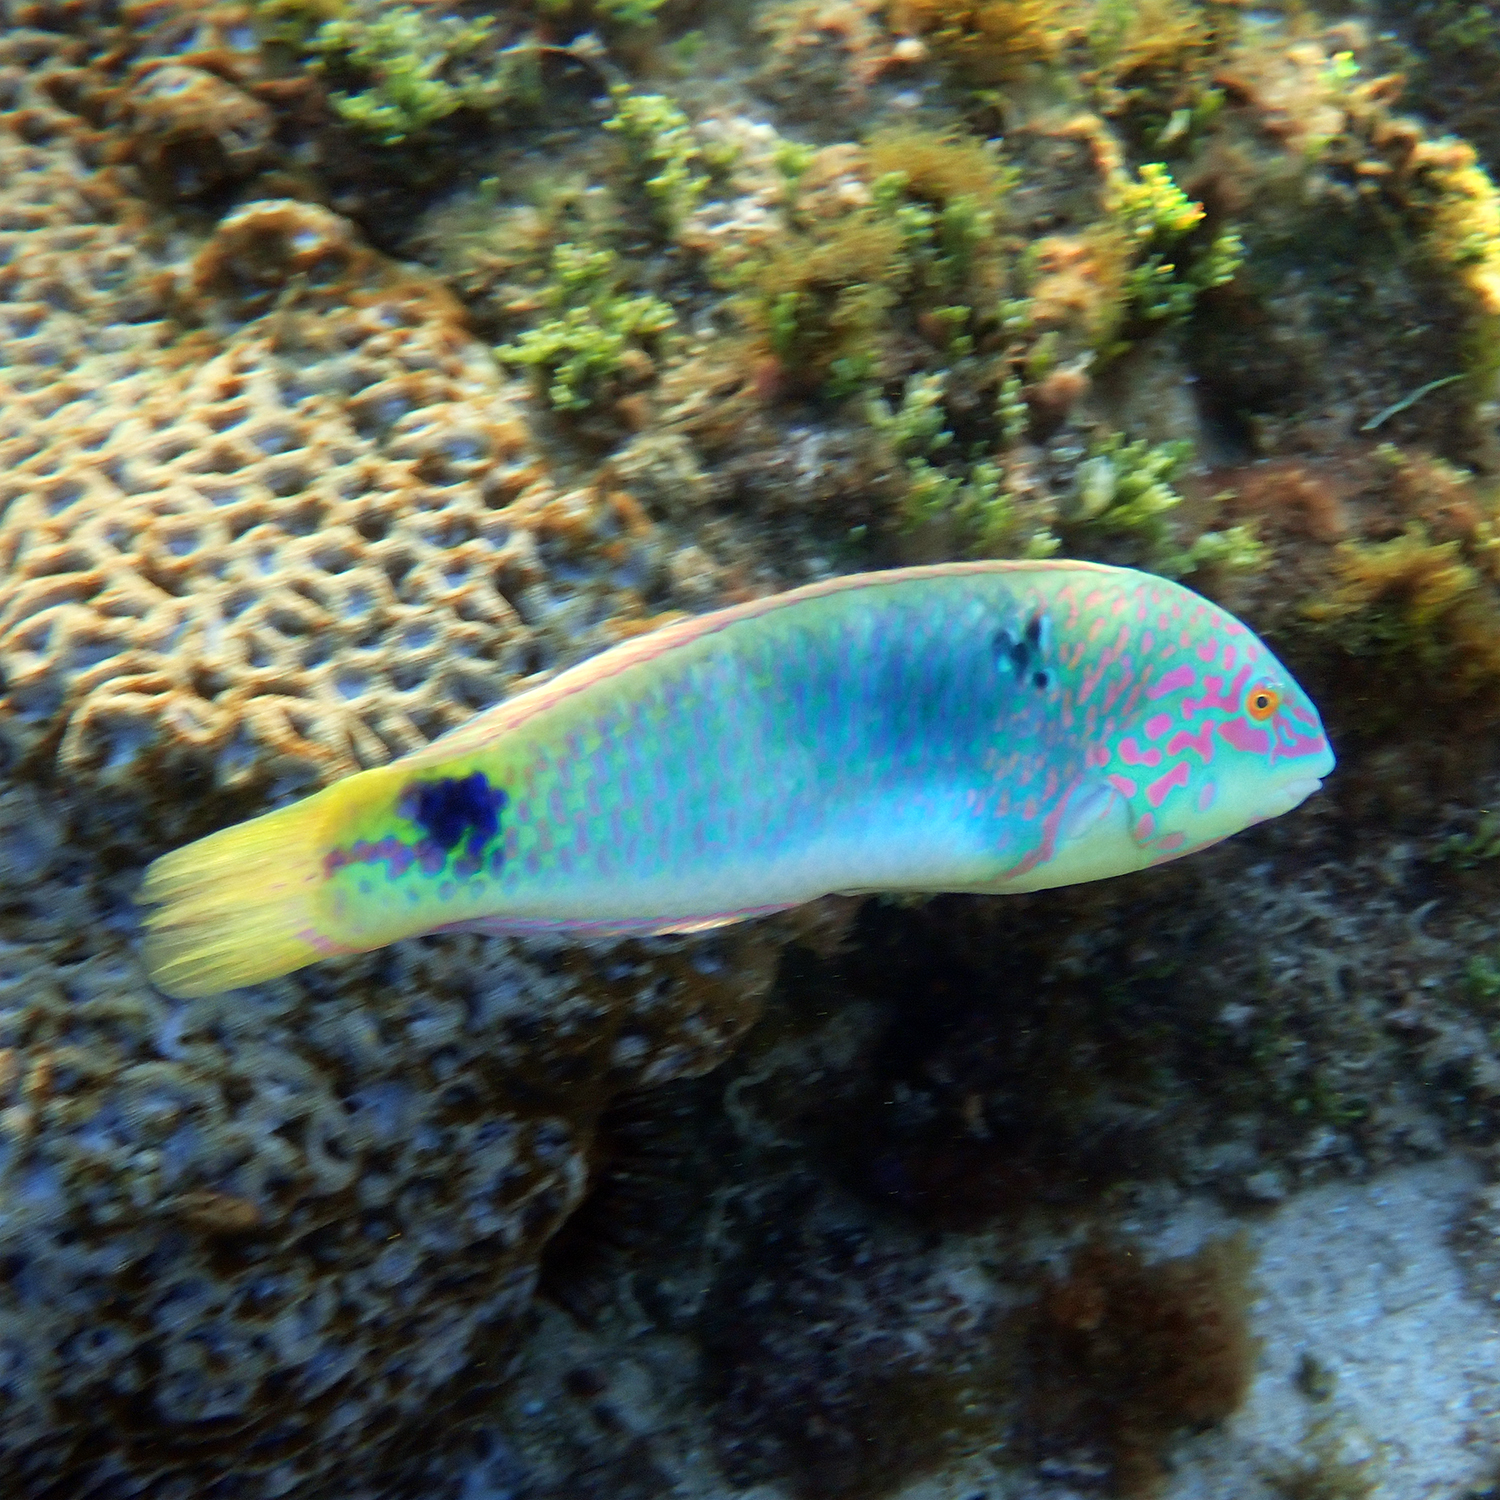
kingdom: Animalia
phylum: Chordata
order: Perciformes
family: Labridae
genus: Halichoeres
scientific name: Halichoeres trimaculatus
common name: Three-spot wrasse
